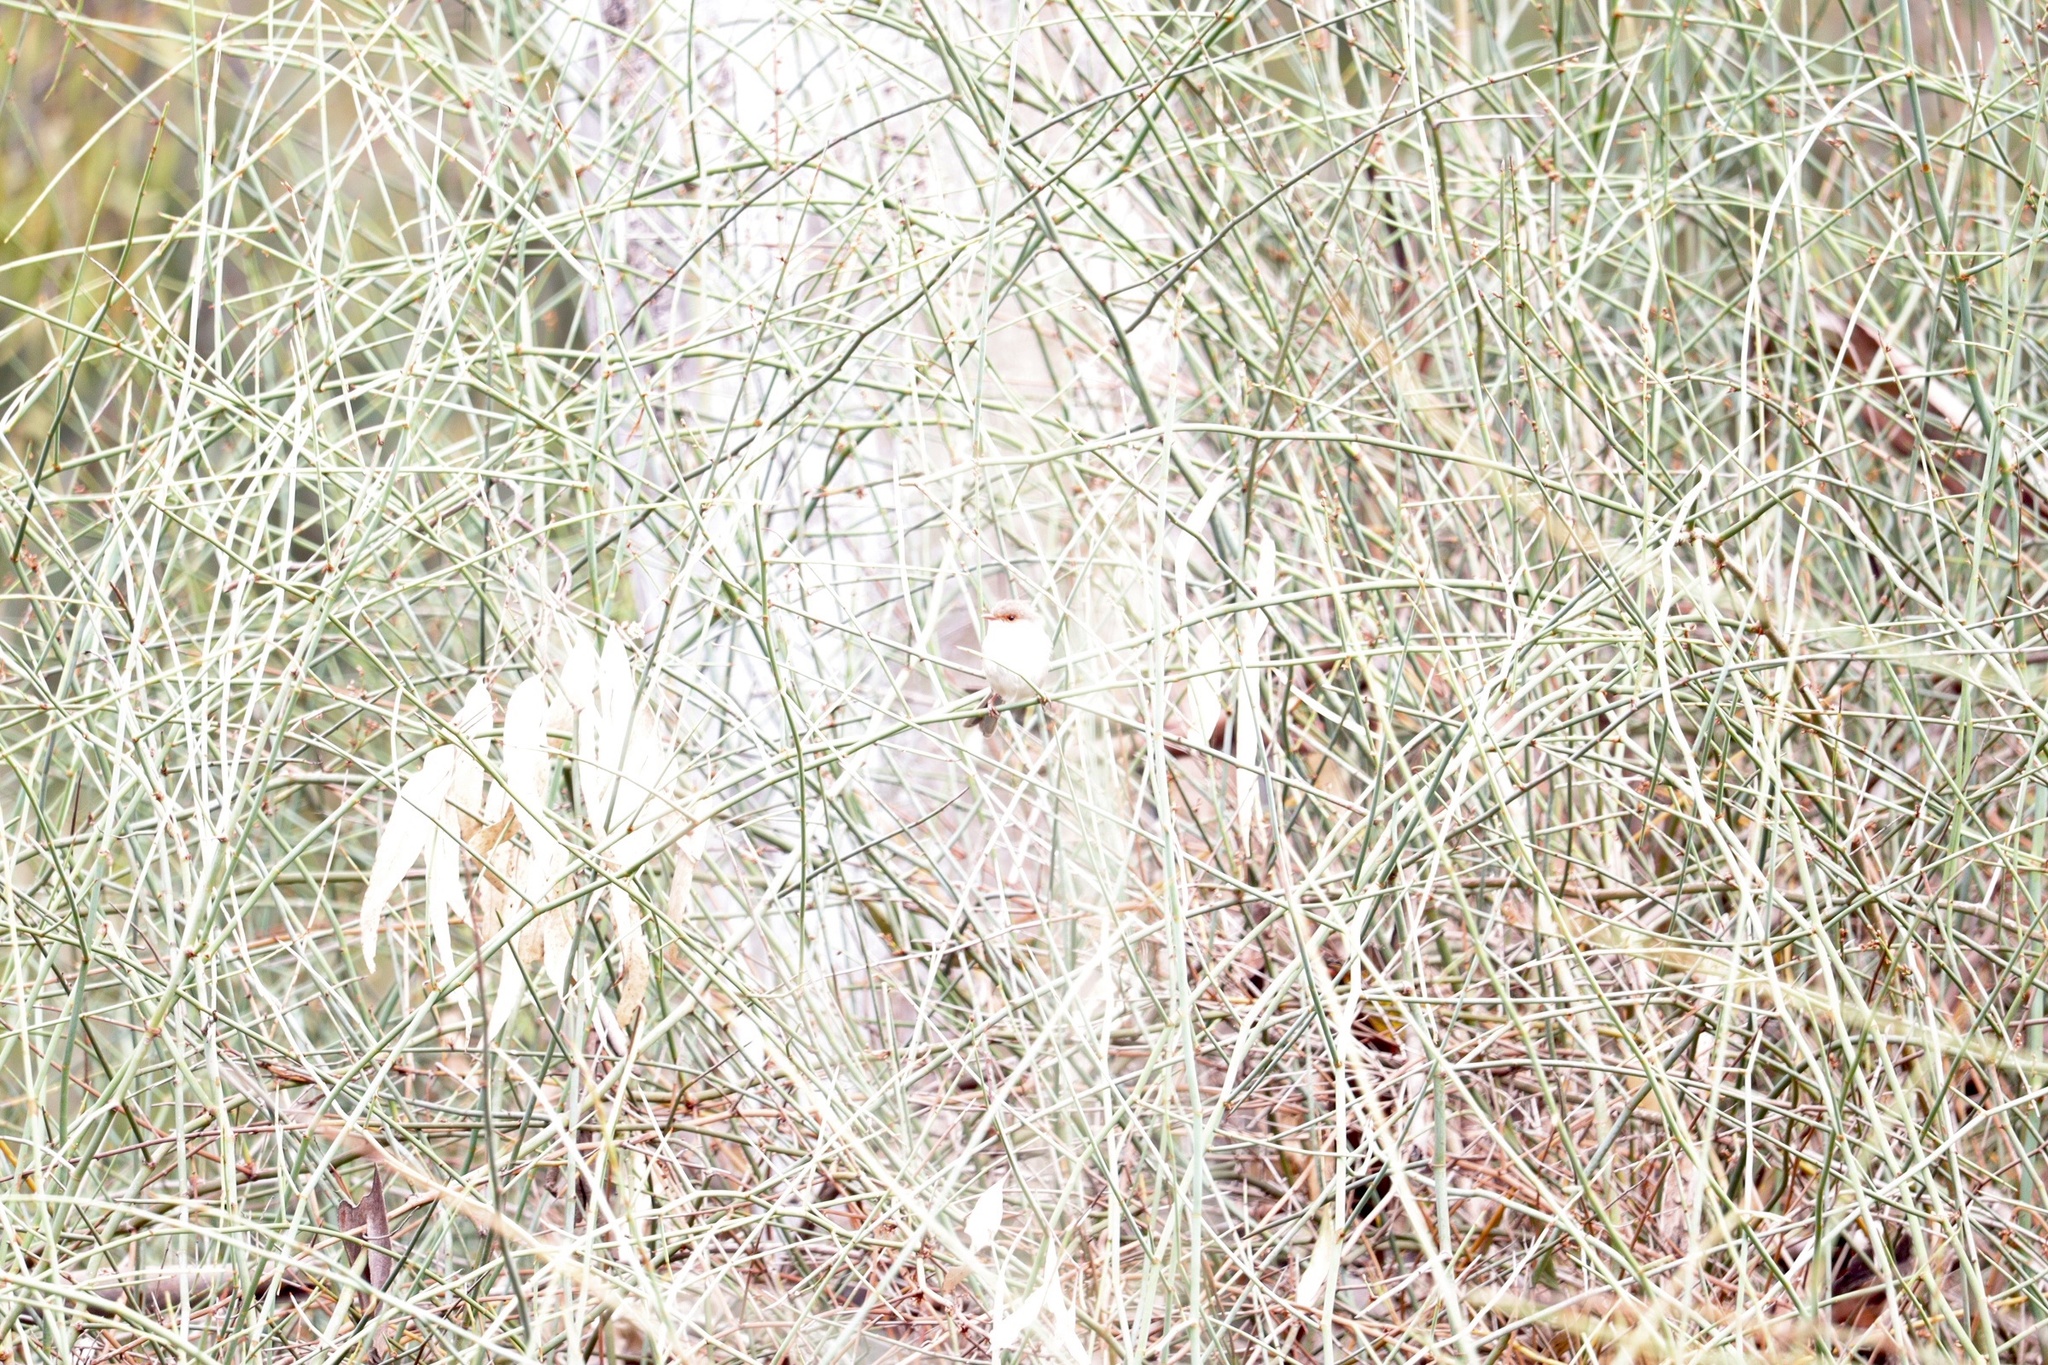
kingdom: Animalia
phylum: Chordata
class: Aves
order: Passeriformes
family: Maluridae
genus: Malurus
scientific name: Malurus cyaneus
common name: Superb fairywren
